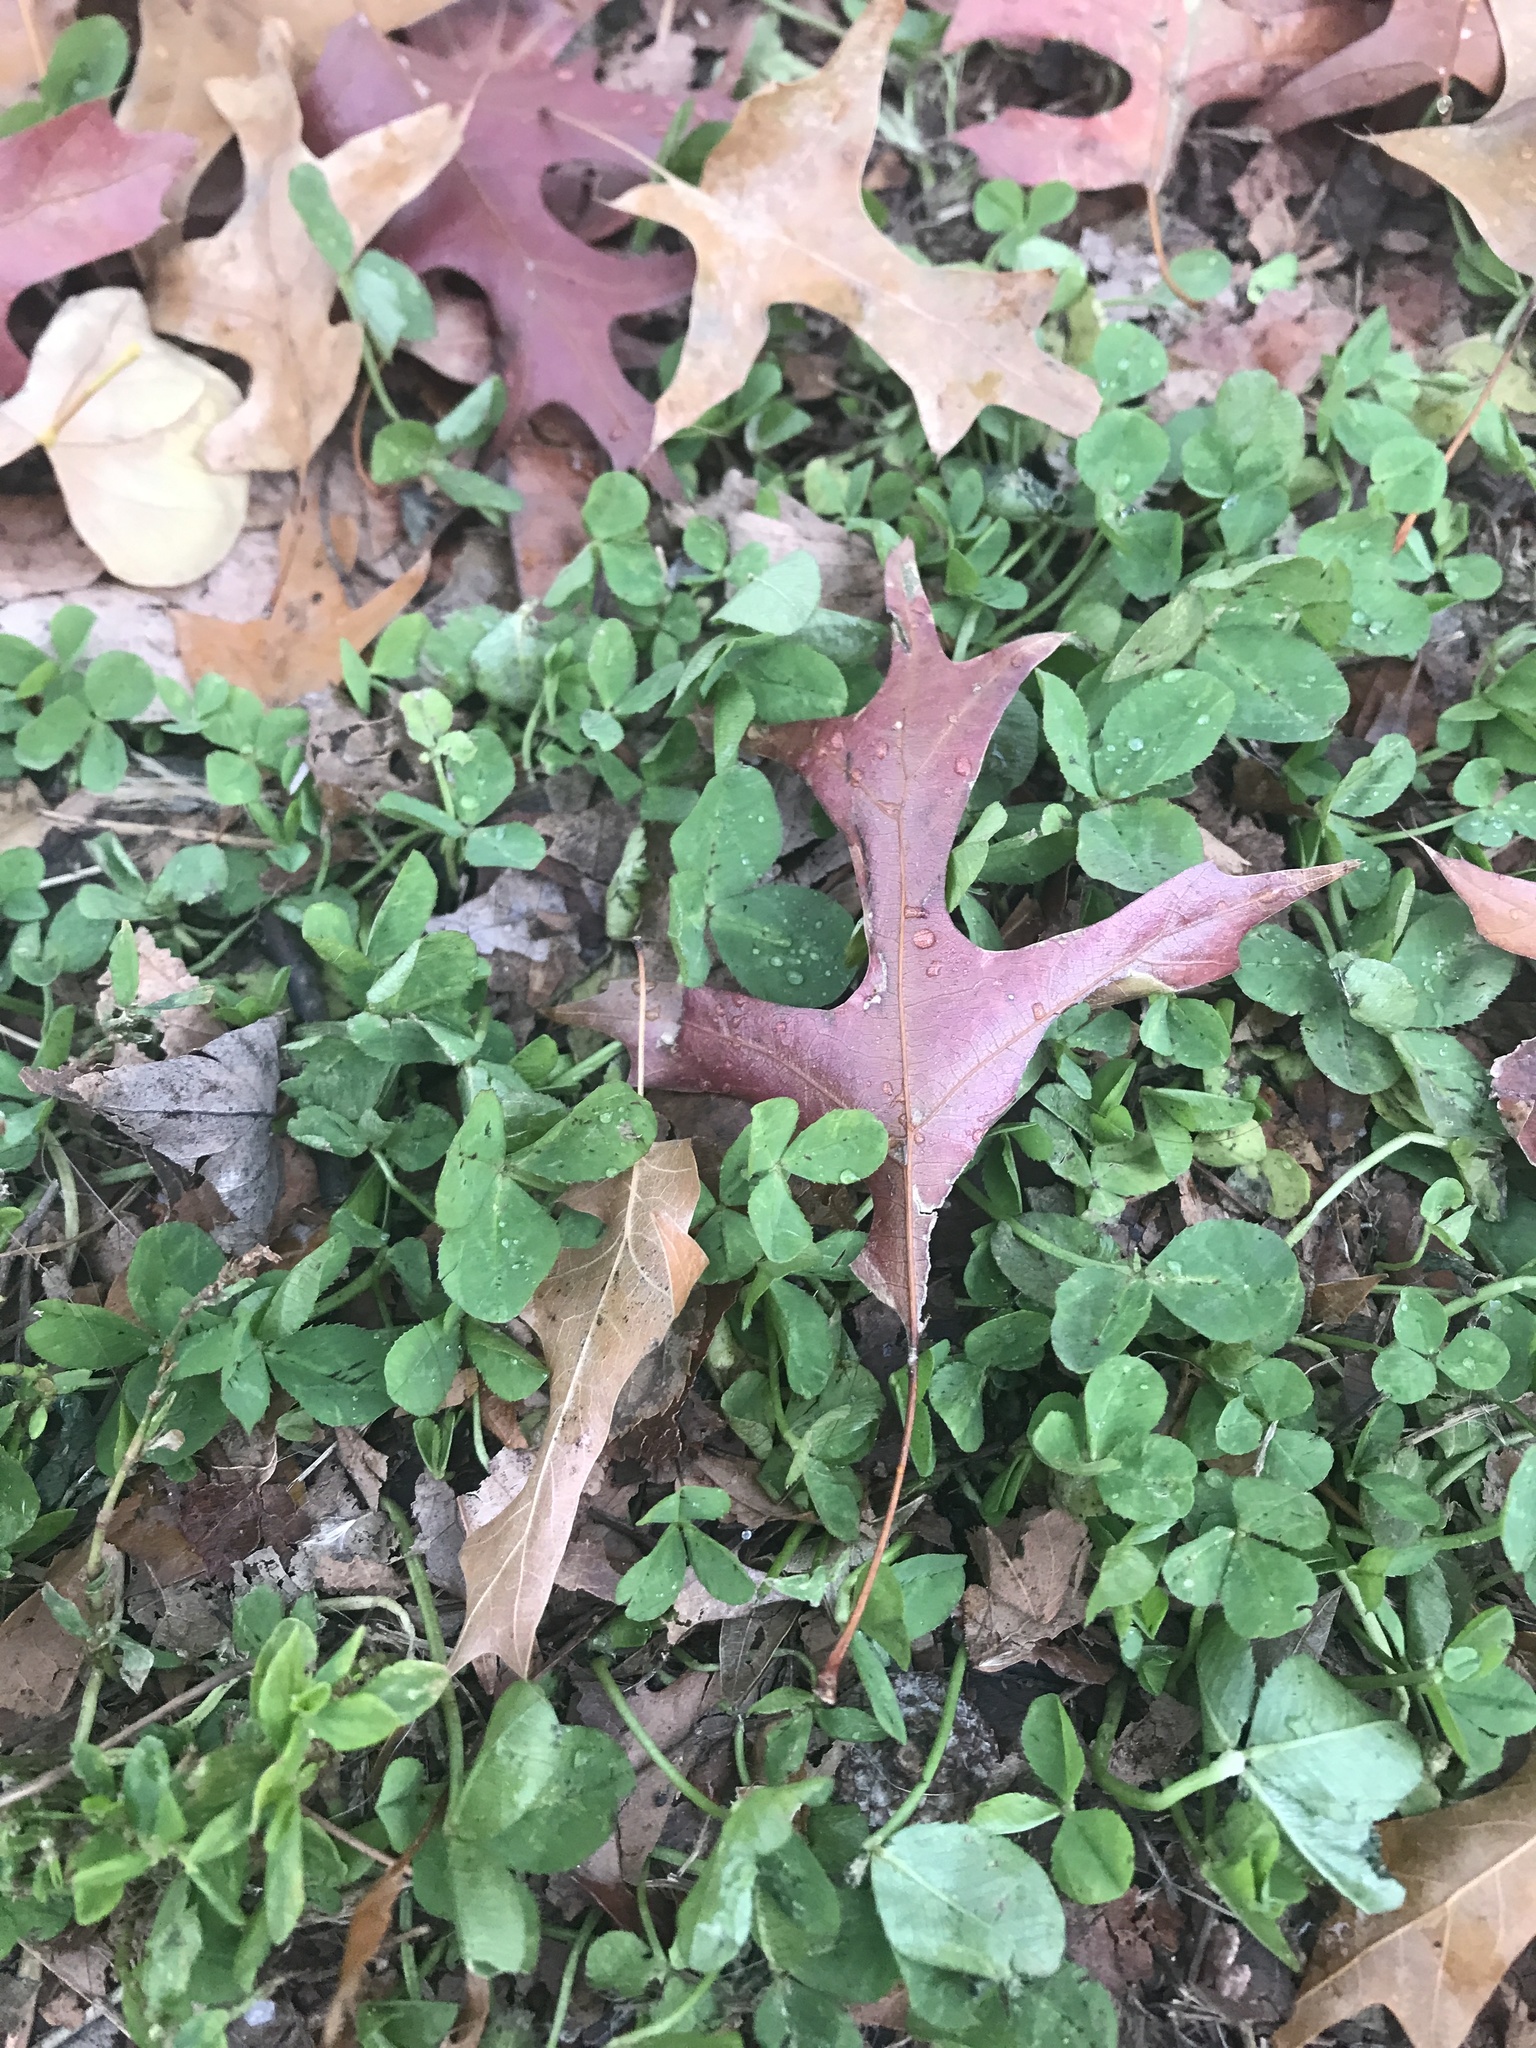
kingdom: Plantae
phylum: Tracheophyta
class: Magnoliopsida
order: Fagales
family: Fagaceae
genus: Quercus
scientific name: Quercus
